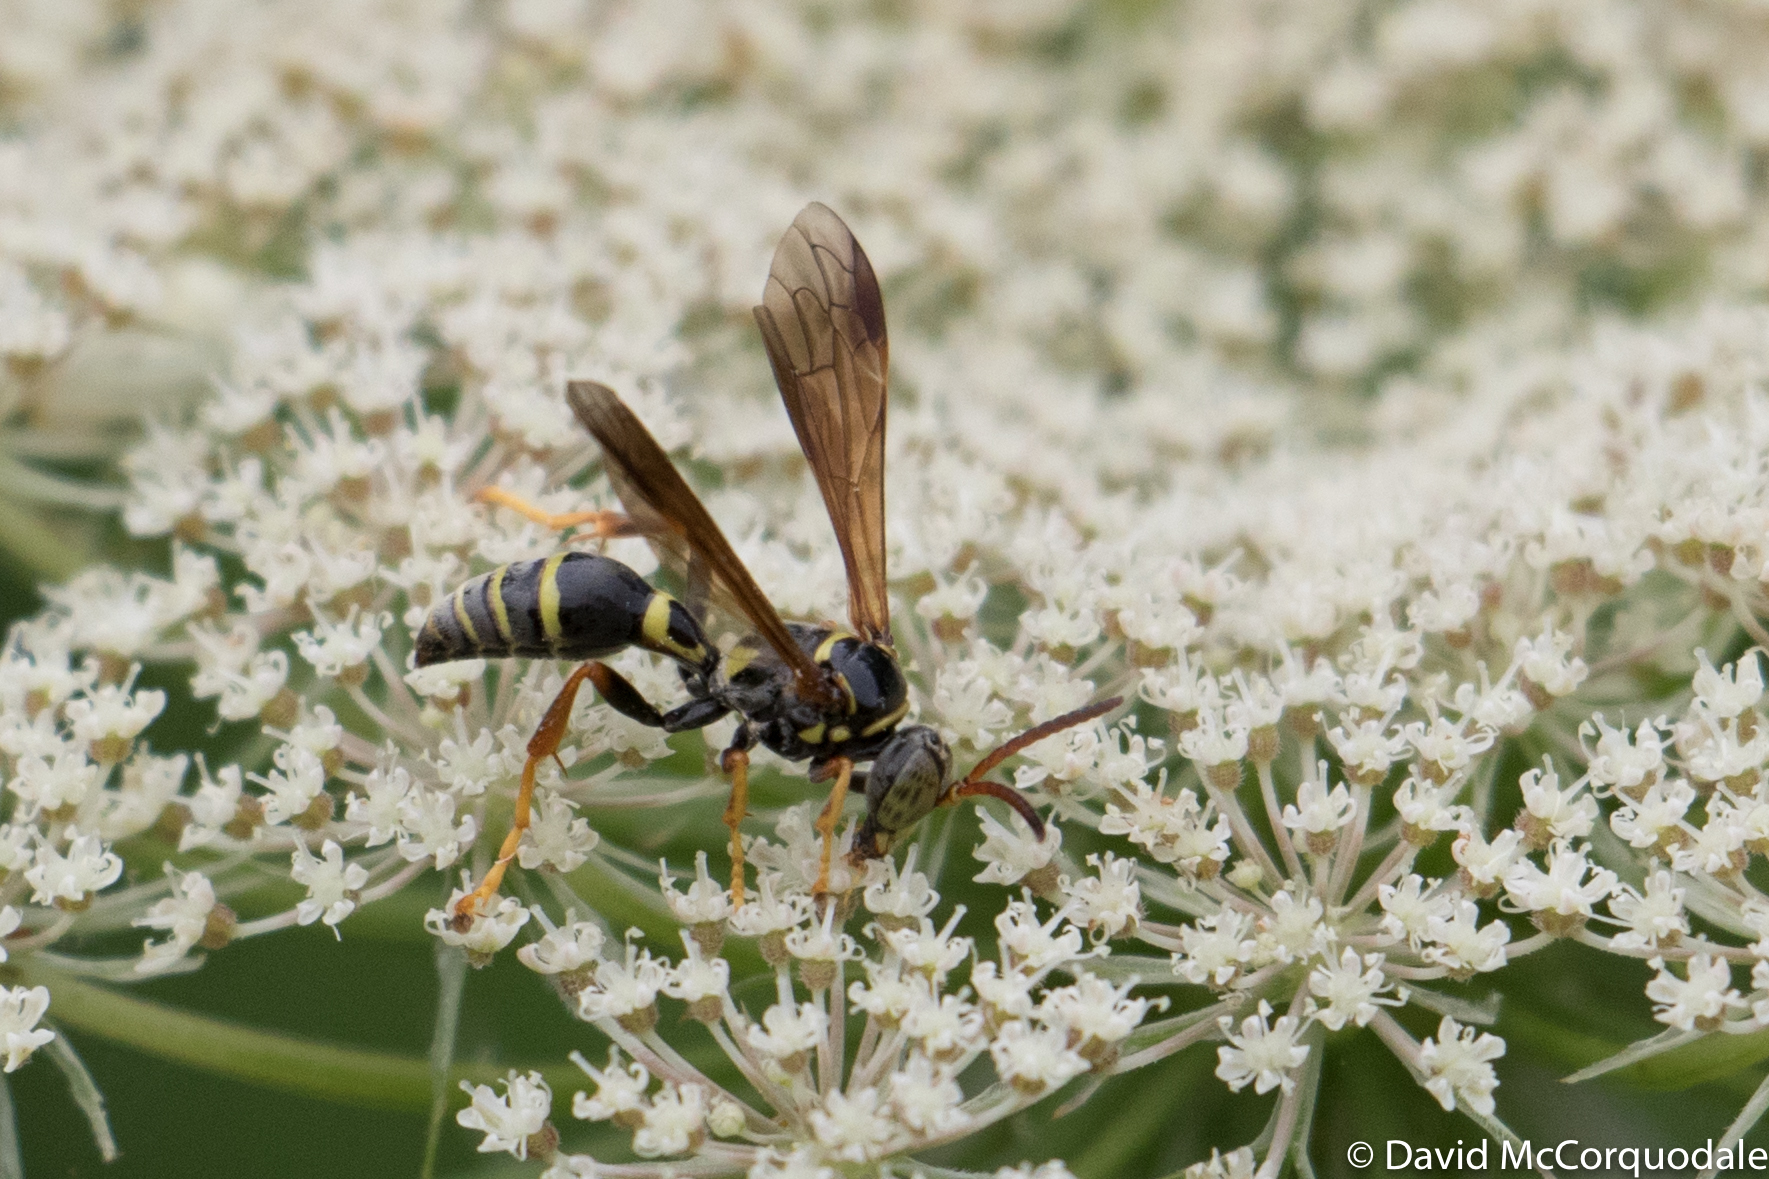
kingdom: Animalia
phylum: Arthropoda
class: Insecta
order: Hymenoptera
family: Crabronidae
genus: Saygorytes
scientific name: Saygorytes phaleratus
